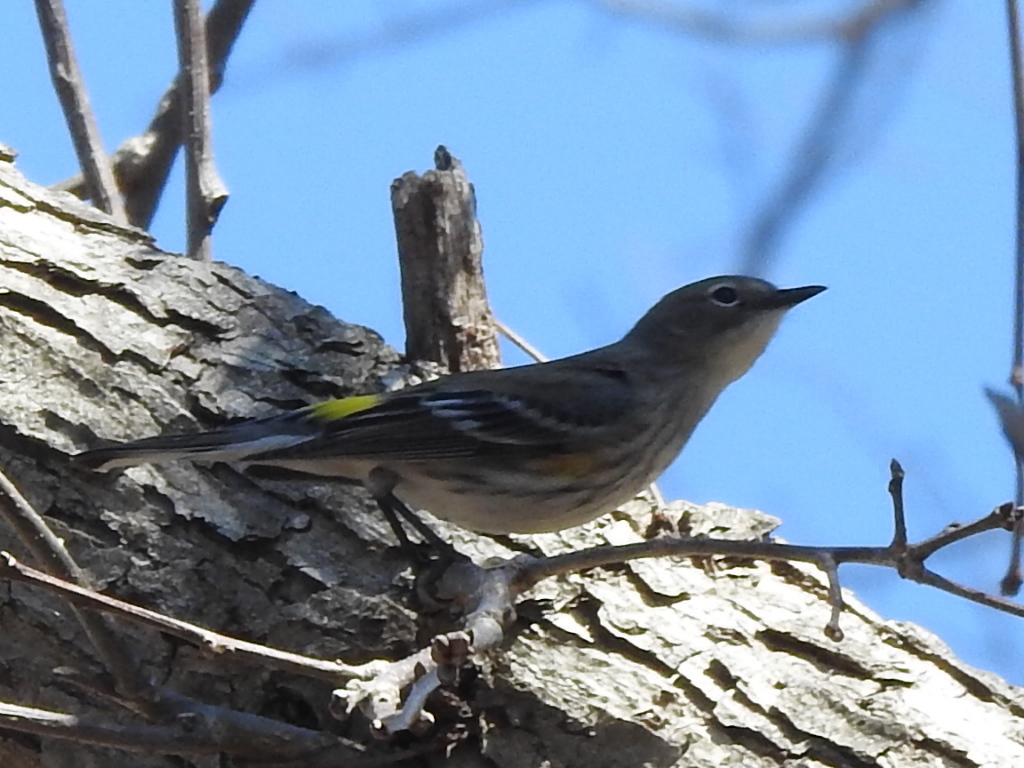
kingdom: Animalia
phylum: Chordata
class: Aves
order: Passeriformes
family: Parulidae
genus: Setophaga
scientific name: Setophaga coronata
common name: Myrtle warbler
